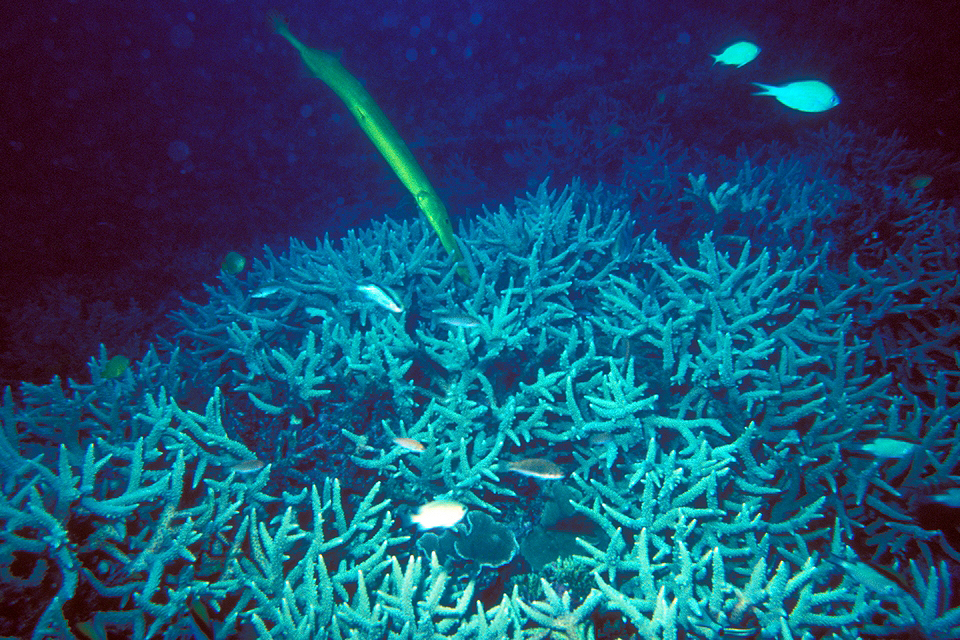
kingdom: Animalia
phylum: Chordata
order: Syngnathiformes
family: Aulostomidae
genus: Aulostomus
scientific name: Aulostomus chinensis
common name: Chinese trumpetfish
